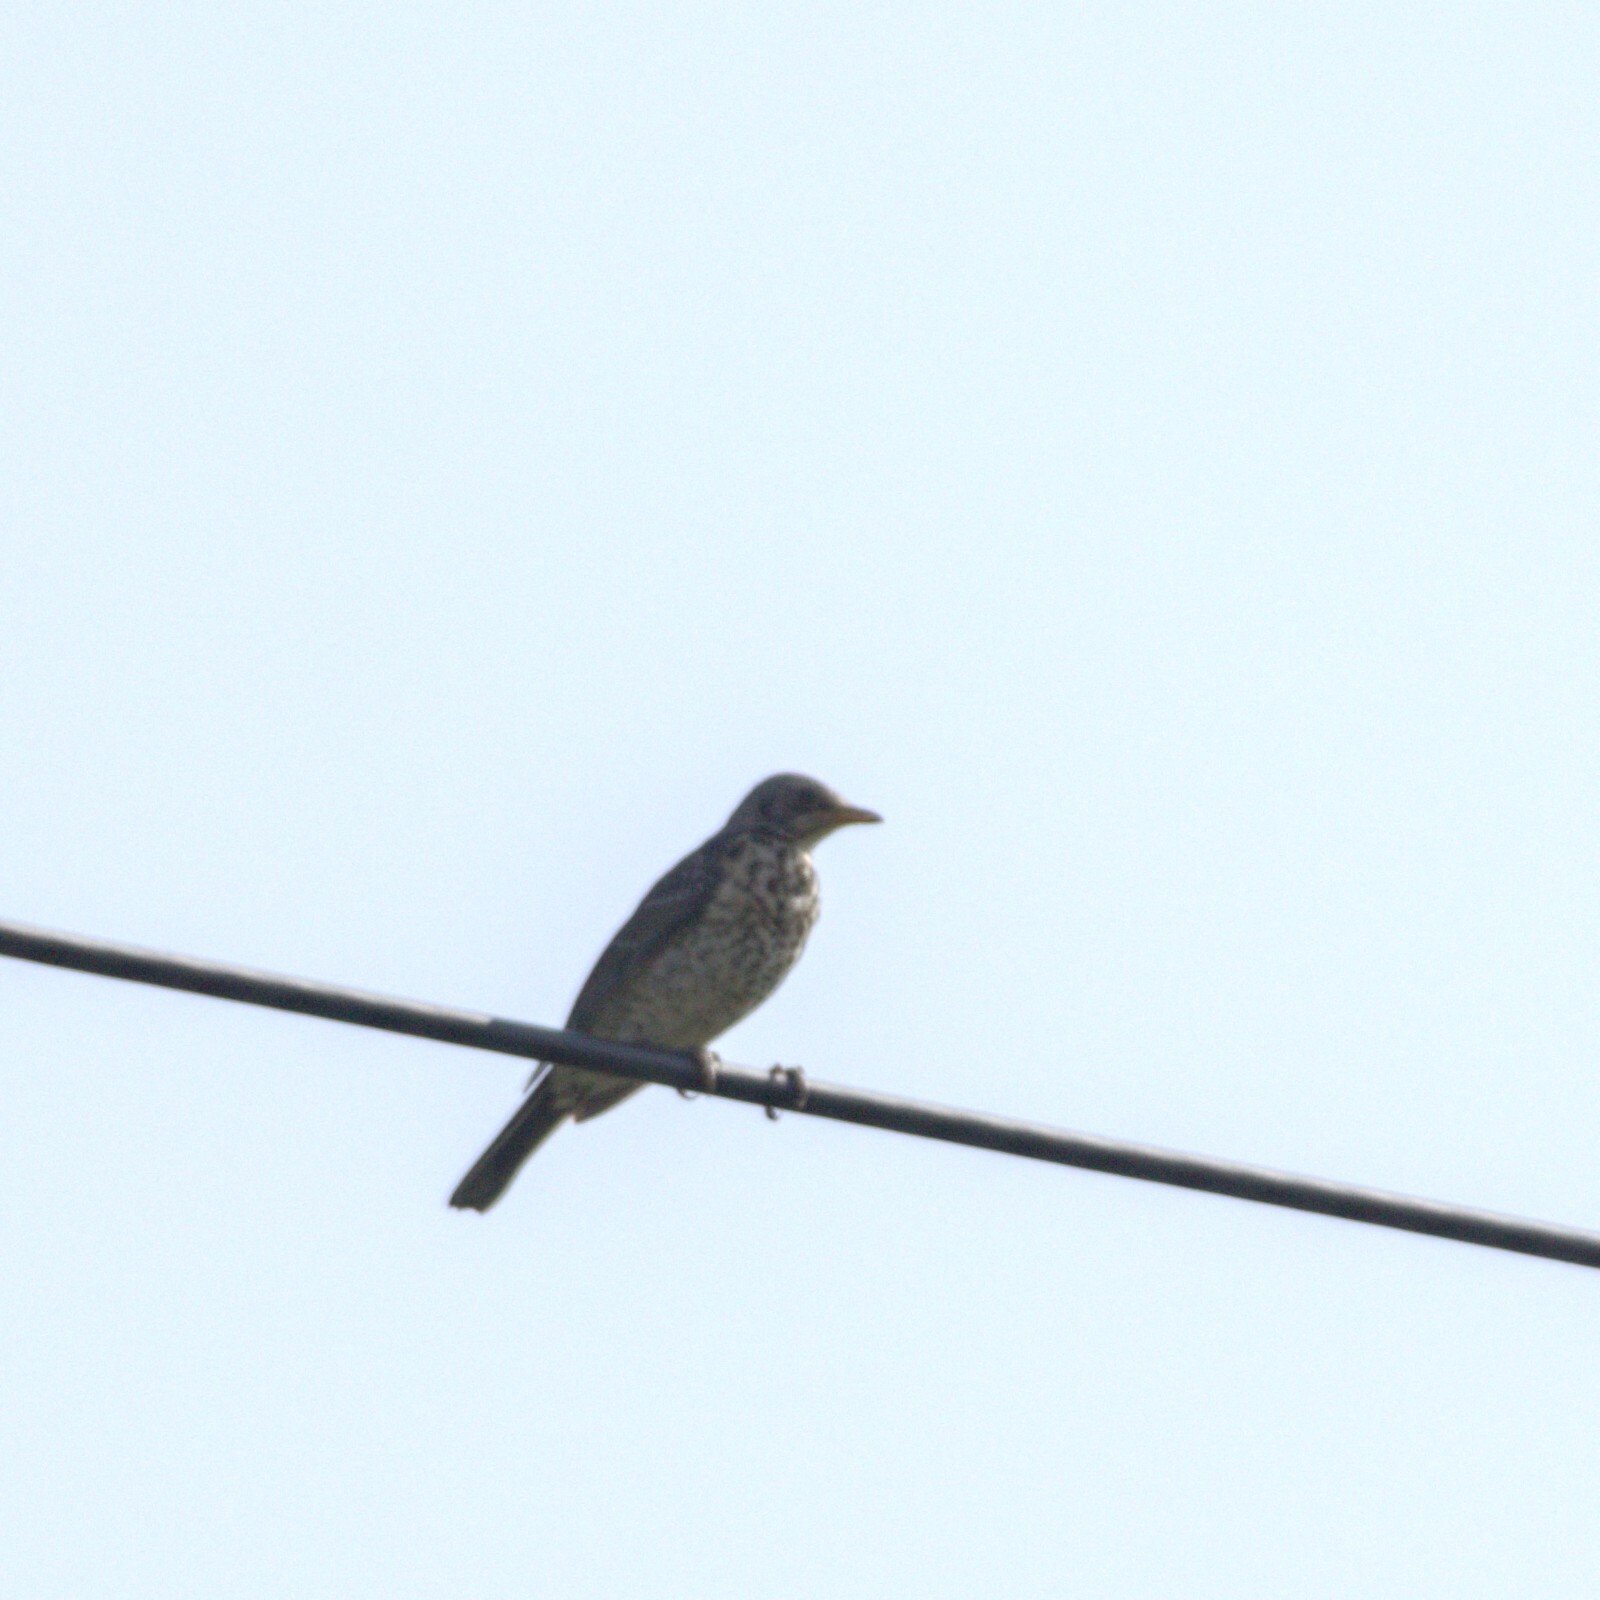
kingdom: Animalia
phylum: Chordata
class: Aves
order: Passeriformes
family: Turdidae
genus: Turdus
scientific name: Turdus pilaris
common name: Fieldfare
